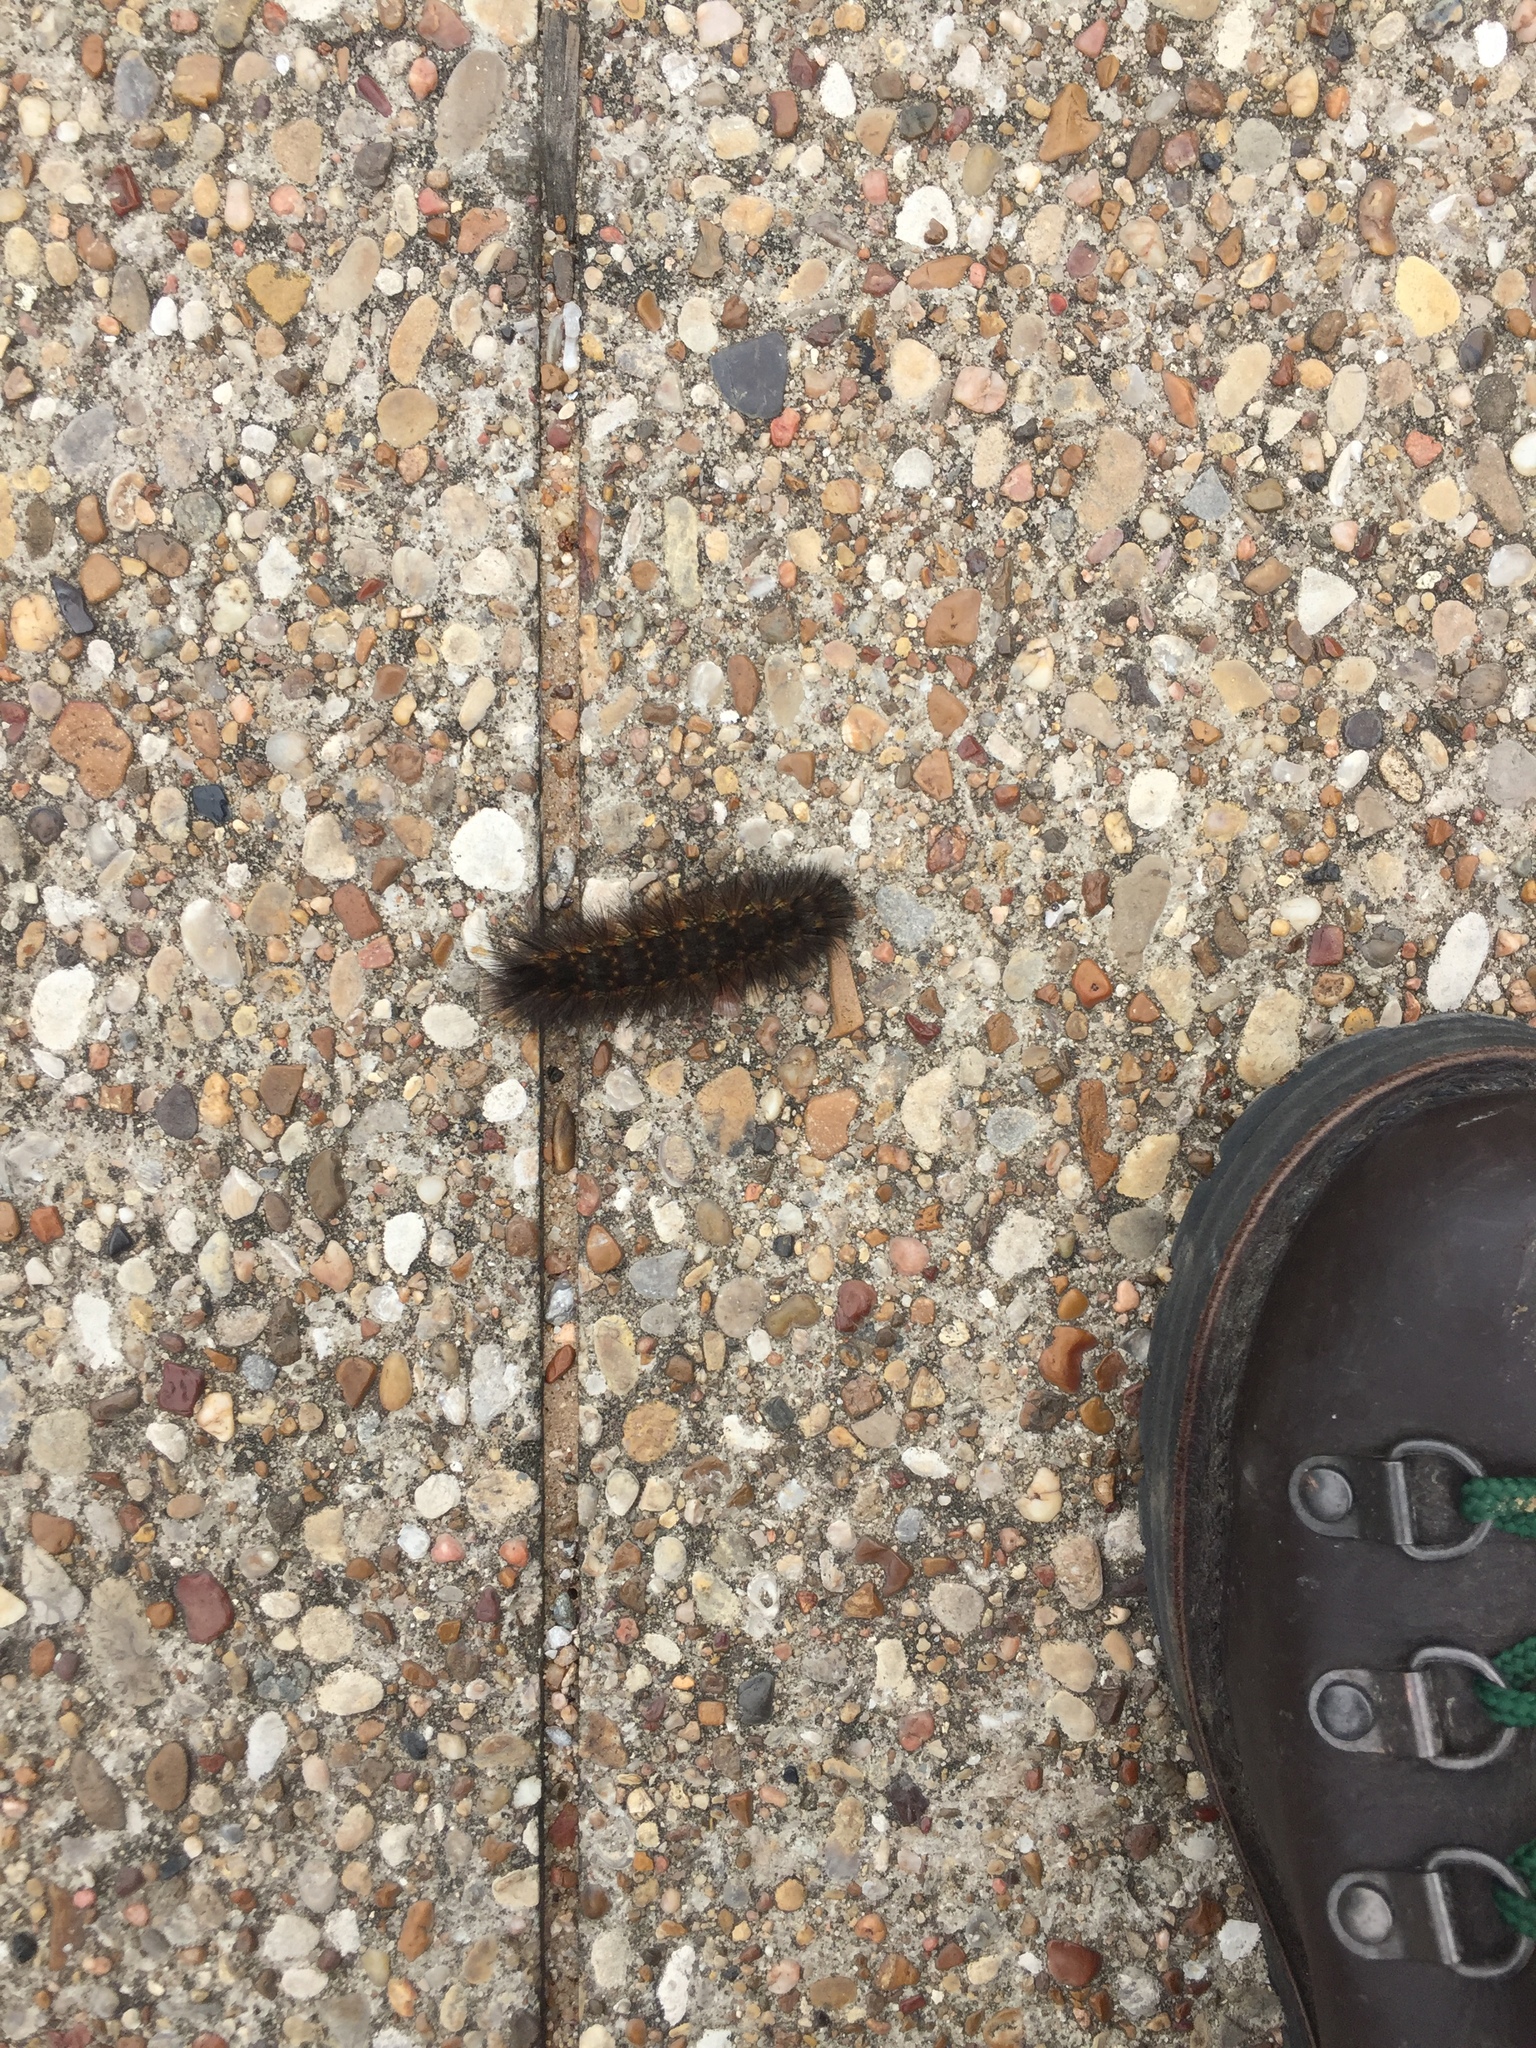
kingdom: Animalia
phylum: Arthropoda
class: Insecta
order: Lepidoptera
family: Erebidae
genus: Estigmene
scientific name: Estigmene acrea
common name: Salt marsh moth
